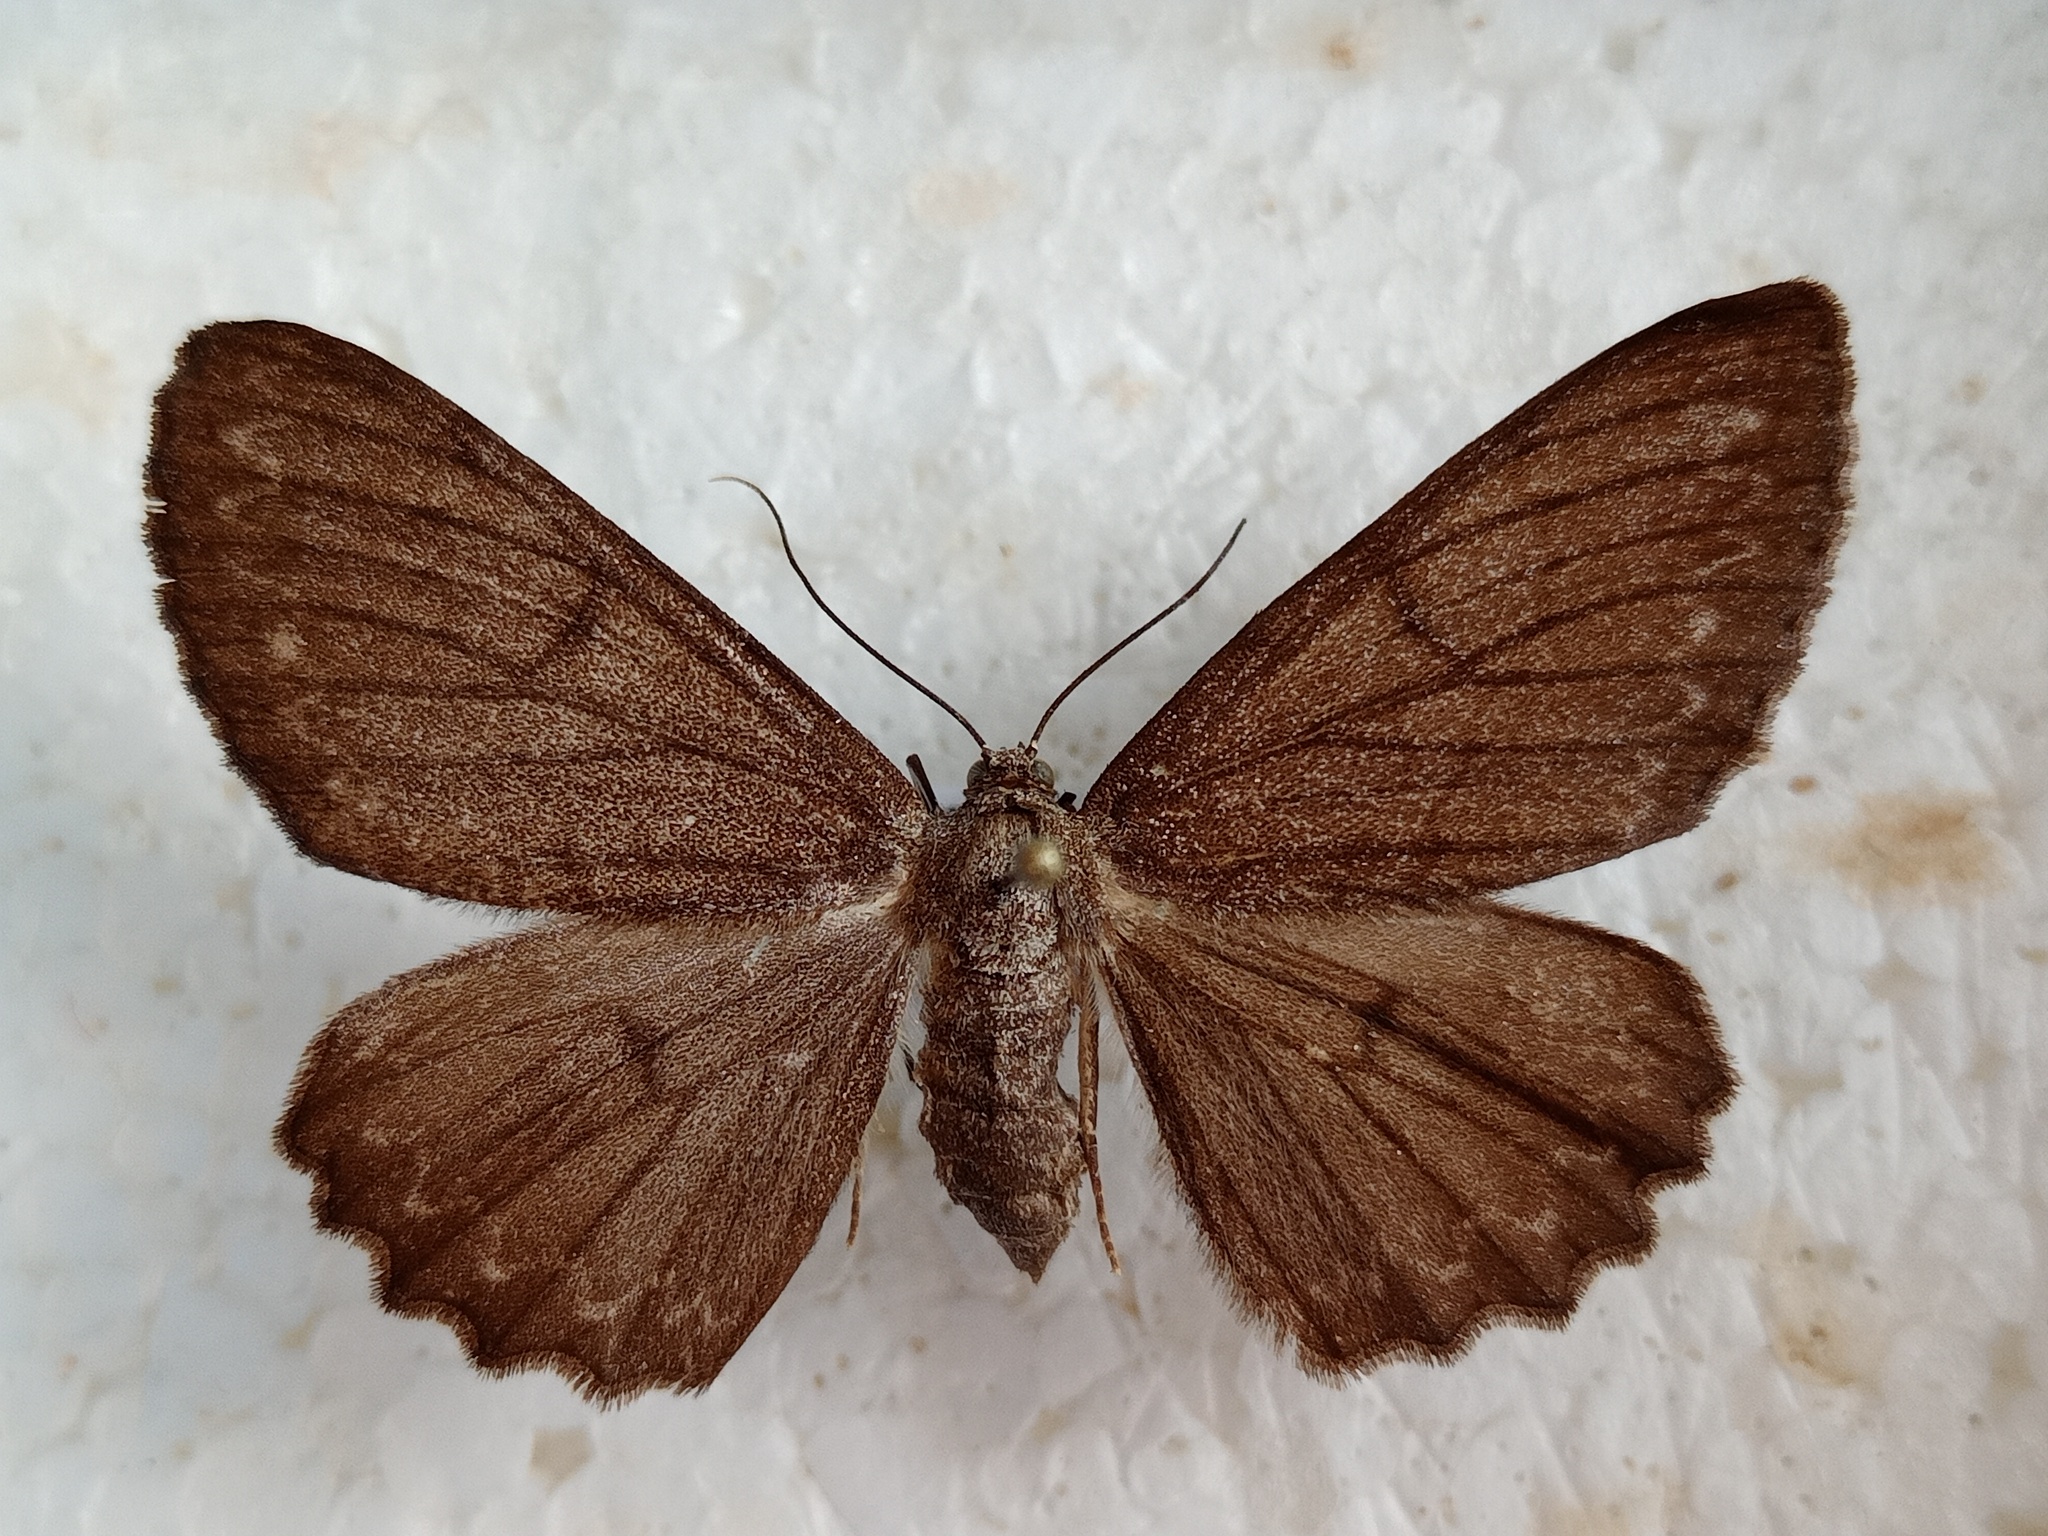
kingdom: Animalia
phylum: Arthropoda
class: Insecta
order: Lepidoptera
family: Geometridae
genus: Hypomecis
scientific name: Hypomecis punctinalis
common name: Pale oak beauty
